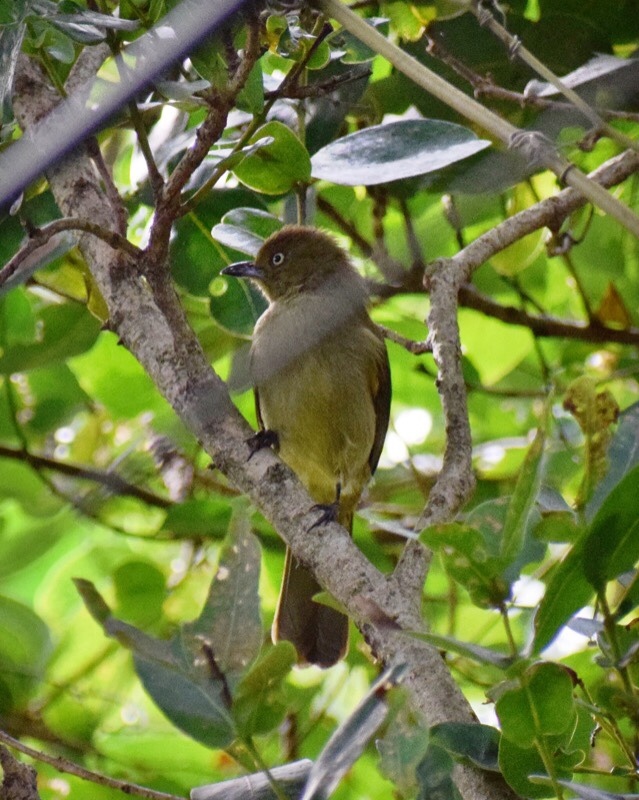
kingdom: Animalia
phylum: Chordata
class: Aves
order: Passeriformes
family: Pycnonotidae
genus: Andropadus
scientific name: Andropadus importunus
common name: Sombre greenbul
